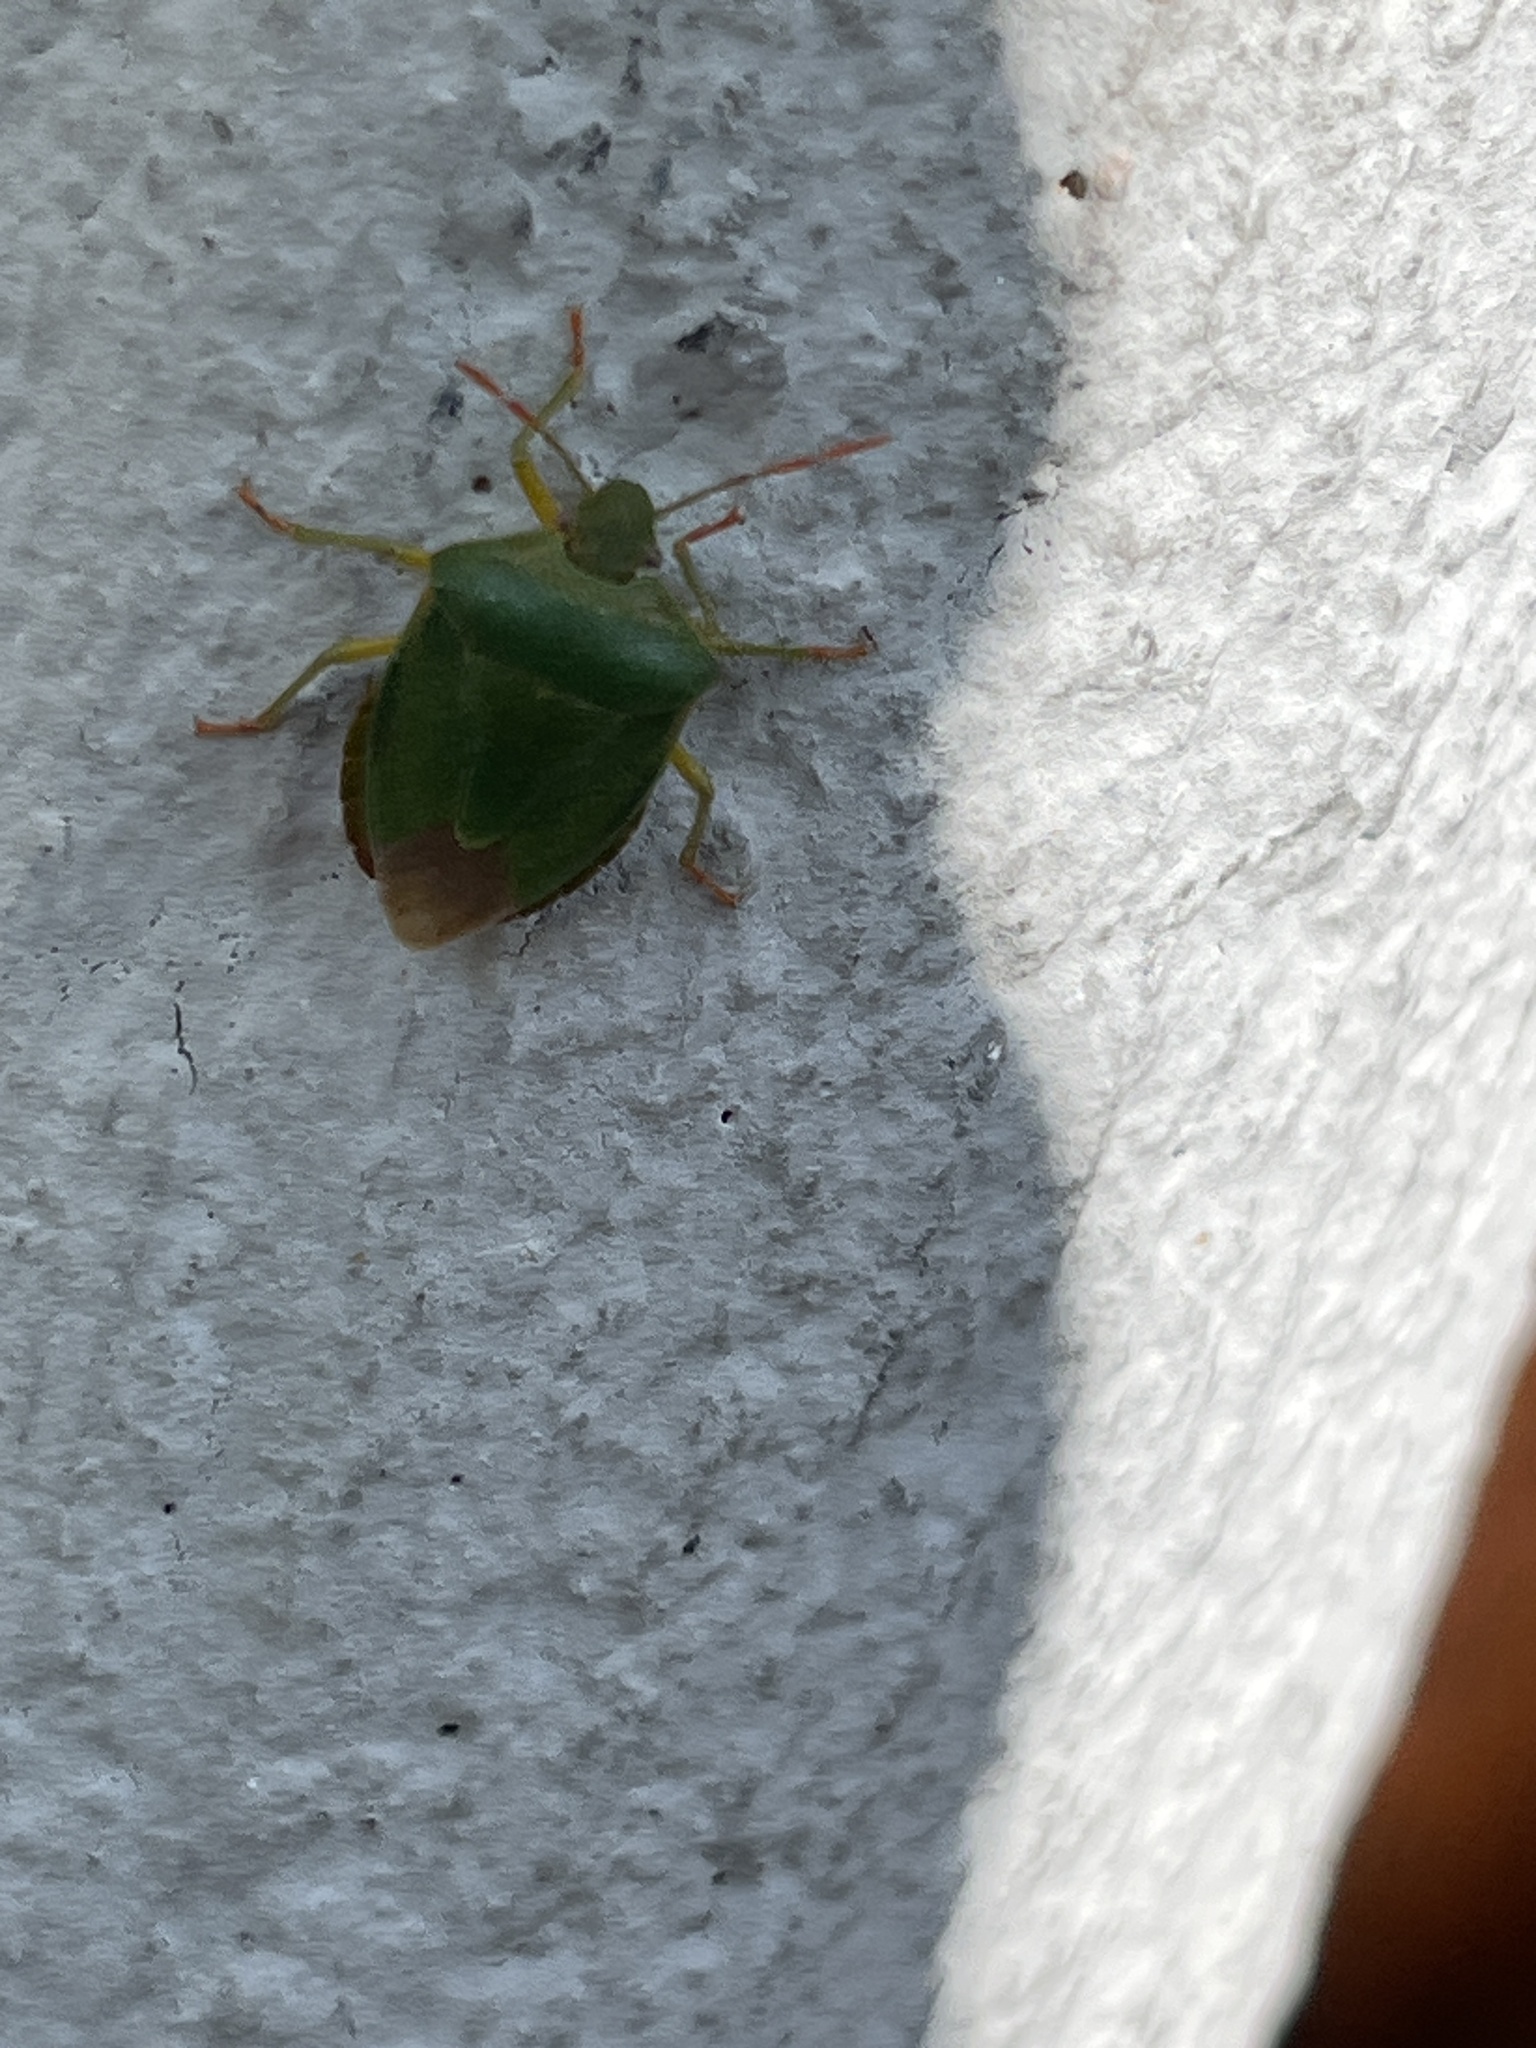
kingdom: Animalia
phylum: Arthropoda
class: Insecta
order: Hemiptera
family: Pentatomidae
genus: Palomena
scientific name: Palomena prasina
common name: Green shieldbug
